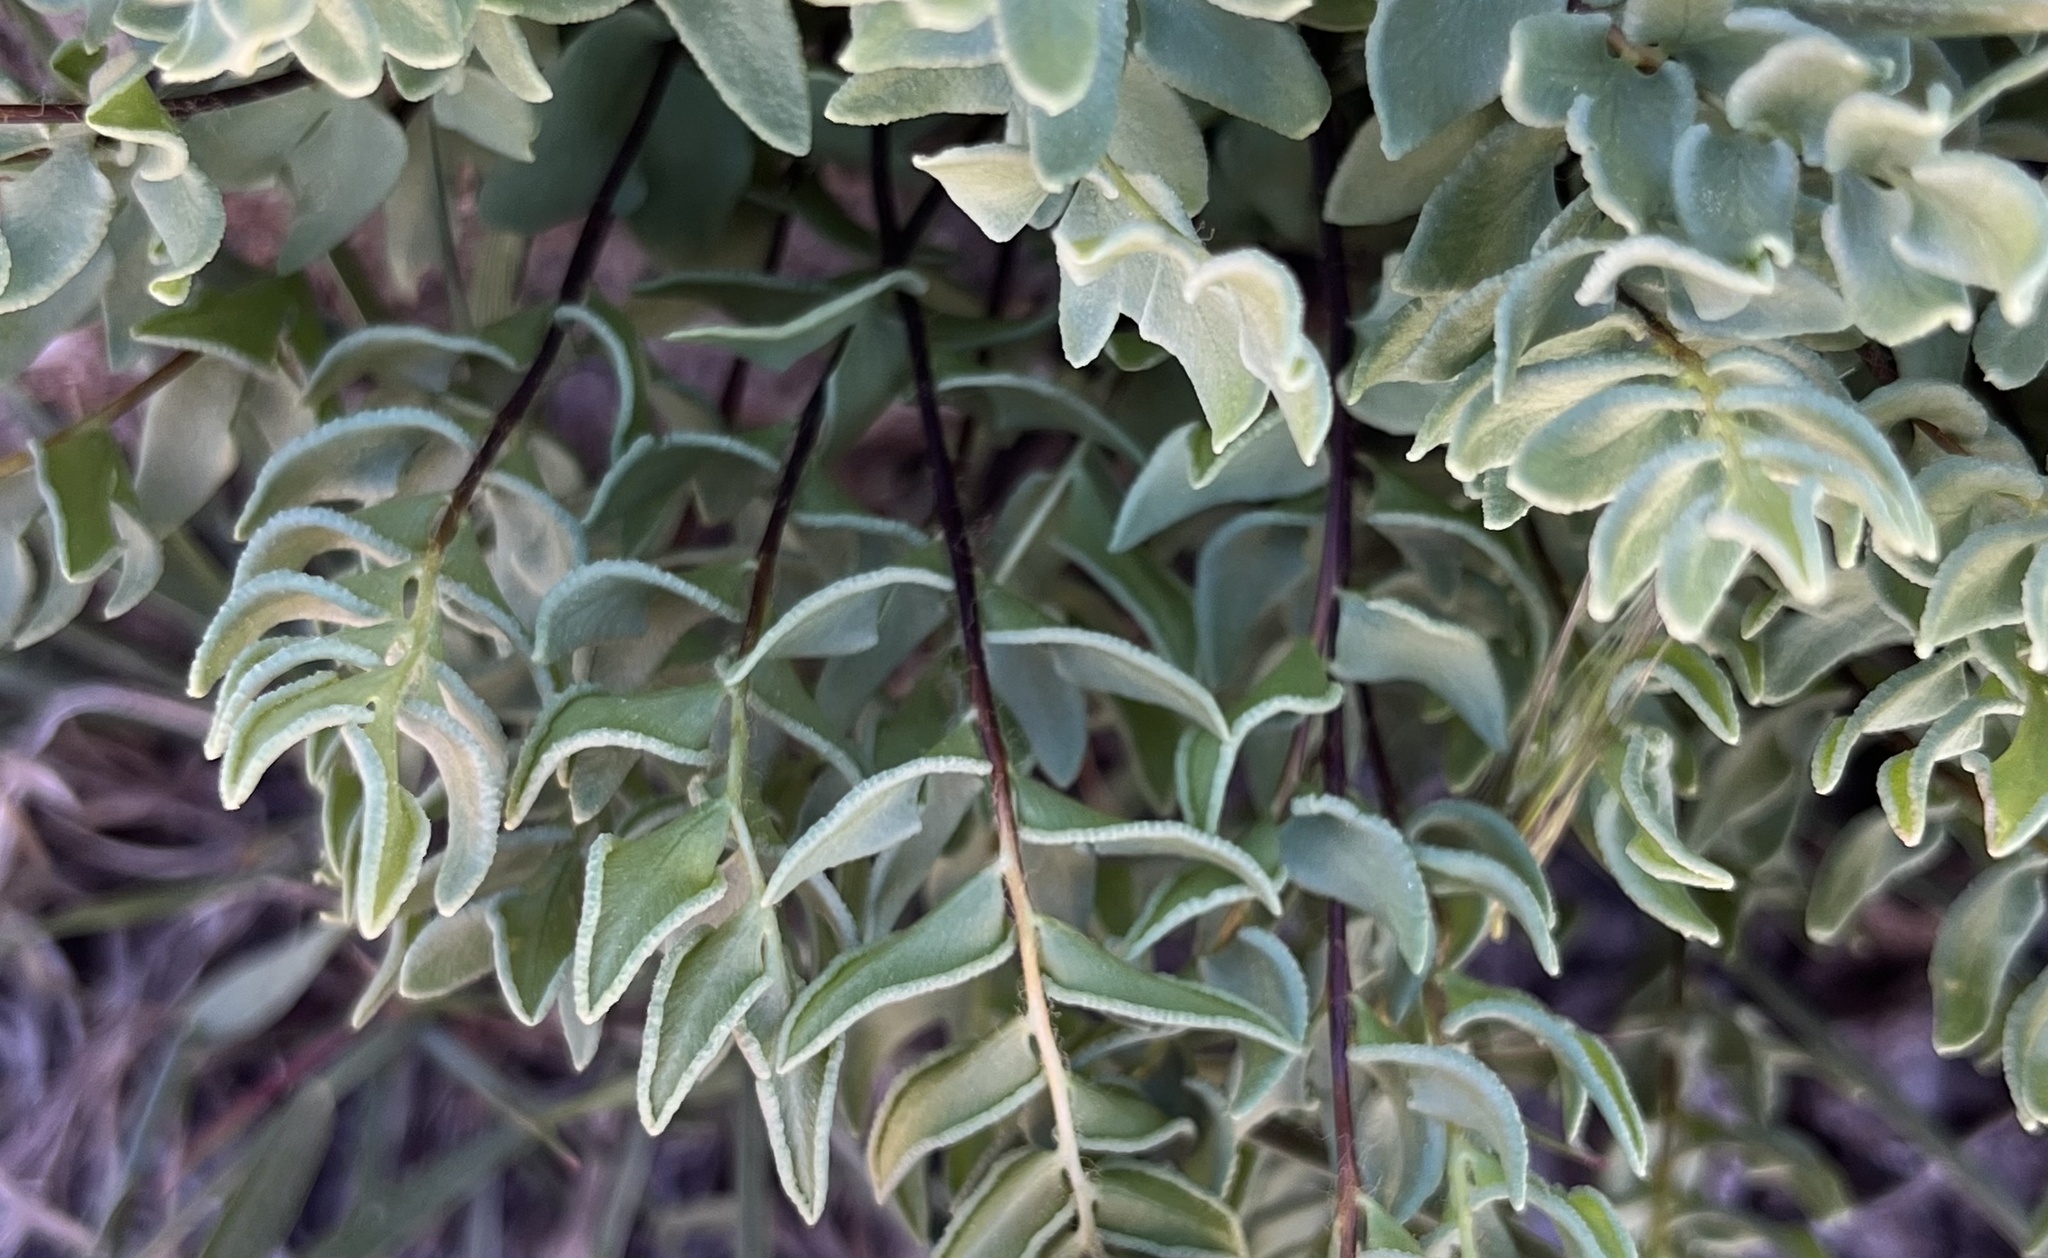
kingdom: Plantae
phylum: Tracheophyta
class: Polypodiopsida
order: Polypodiales
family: Pteridaceae
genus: Pellaea
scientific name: Pellaea breweri
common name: Brewer's cliffbrake
